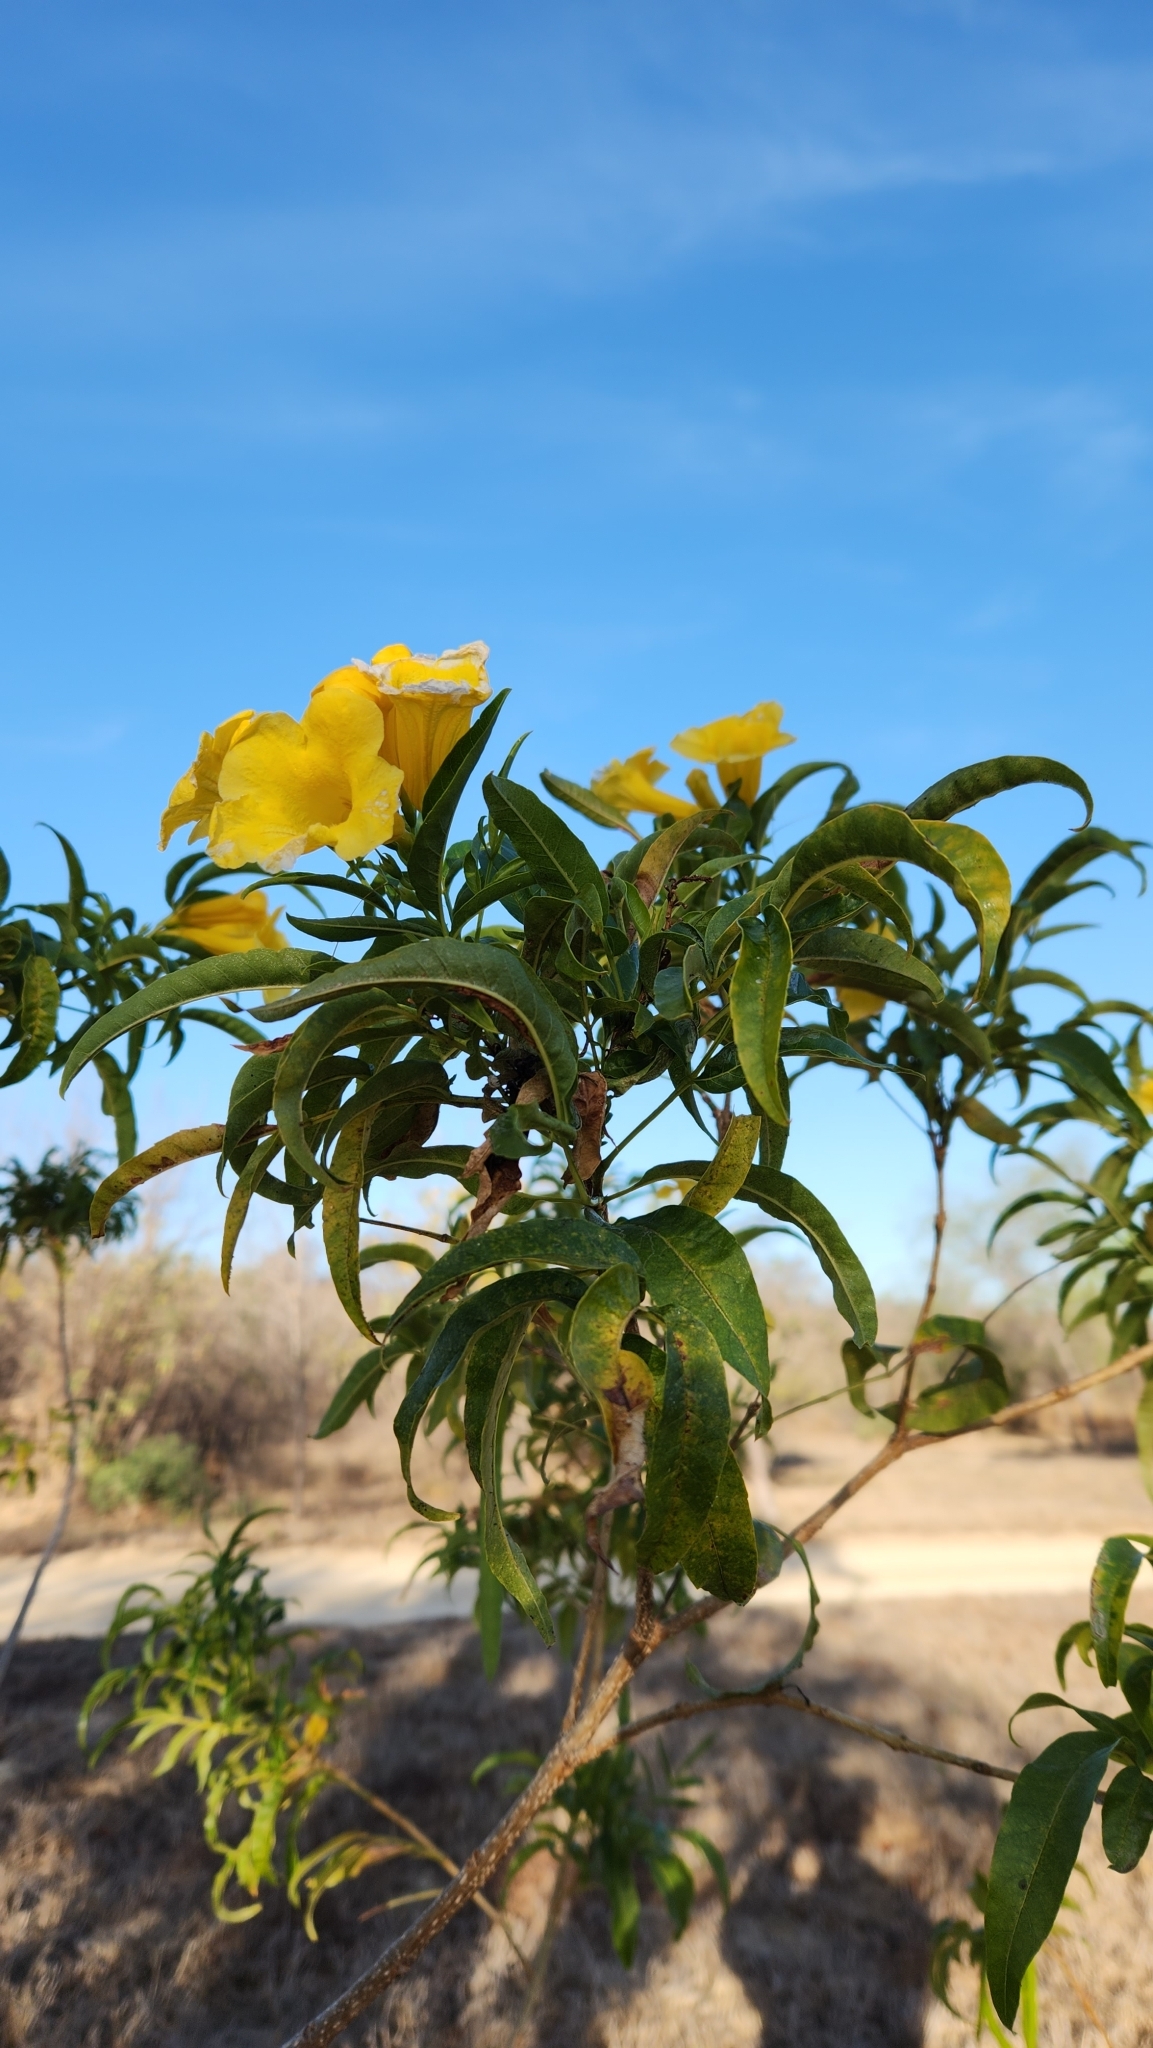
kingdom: Plantae
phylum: Tracheophyta
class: Magnoliopsida
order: Lamiales
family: Bignoniaceae
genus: Tecoma
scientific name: Tecoma stans
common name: Yellow trumpetbush
